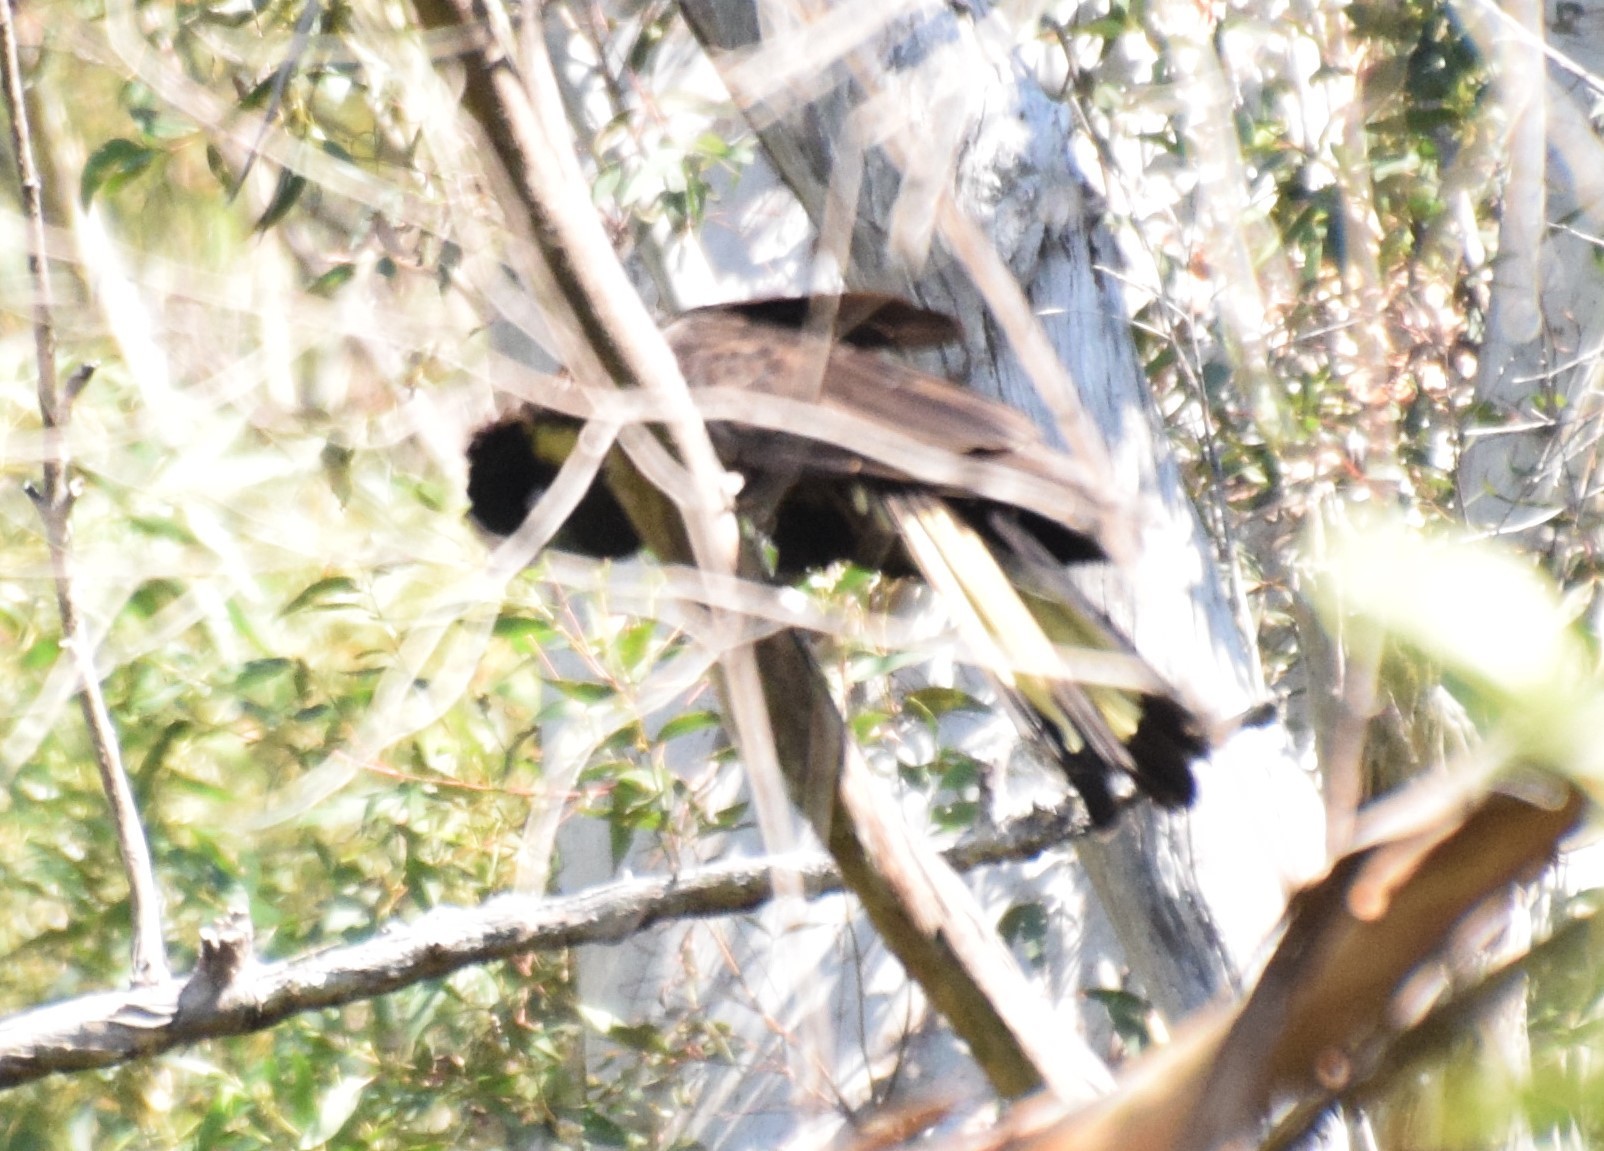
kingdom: Animalia
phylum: Chordata
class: Aves
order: Psittaciformes
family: Cacatuidae
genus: Zanda
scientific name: Zanda funerea
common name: Yellow-tailed black-cockatoo
